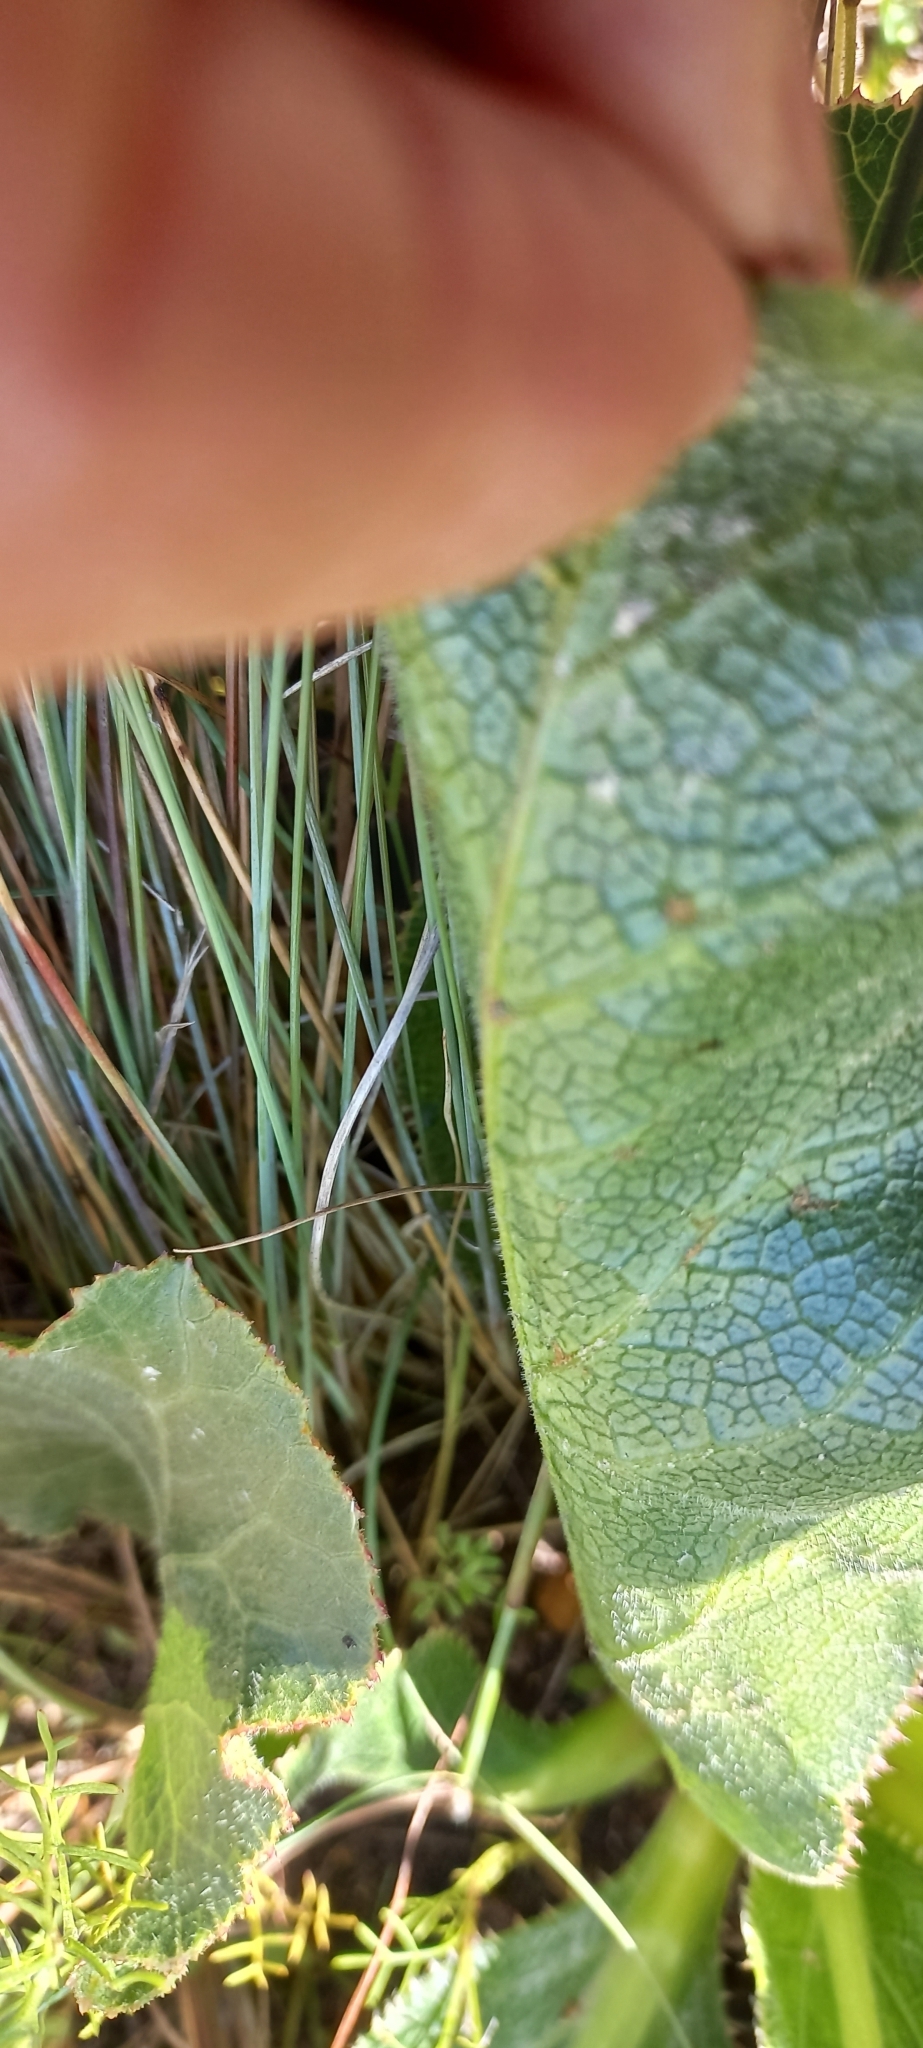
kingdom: Plantae
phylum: Tracheophyta
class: Magnoliopsida
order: Apiales
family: Apiaceae
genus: Lichtensteinia
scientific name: Lichtensteinia trifida
